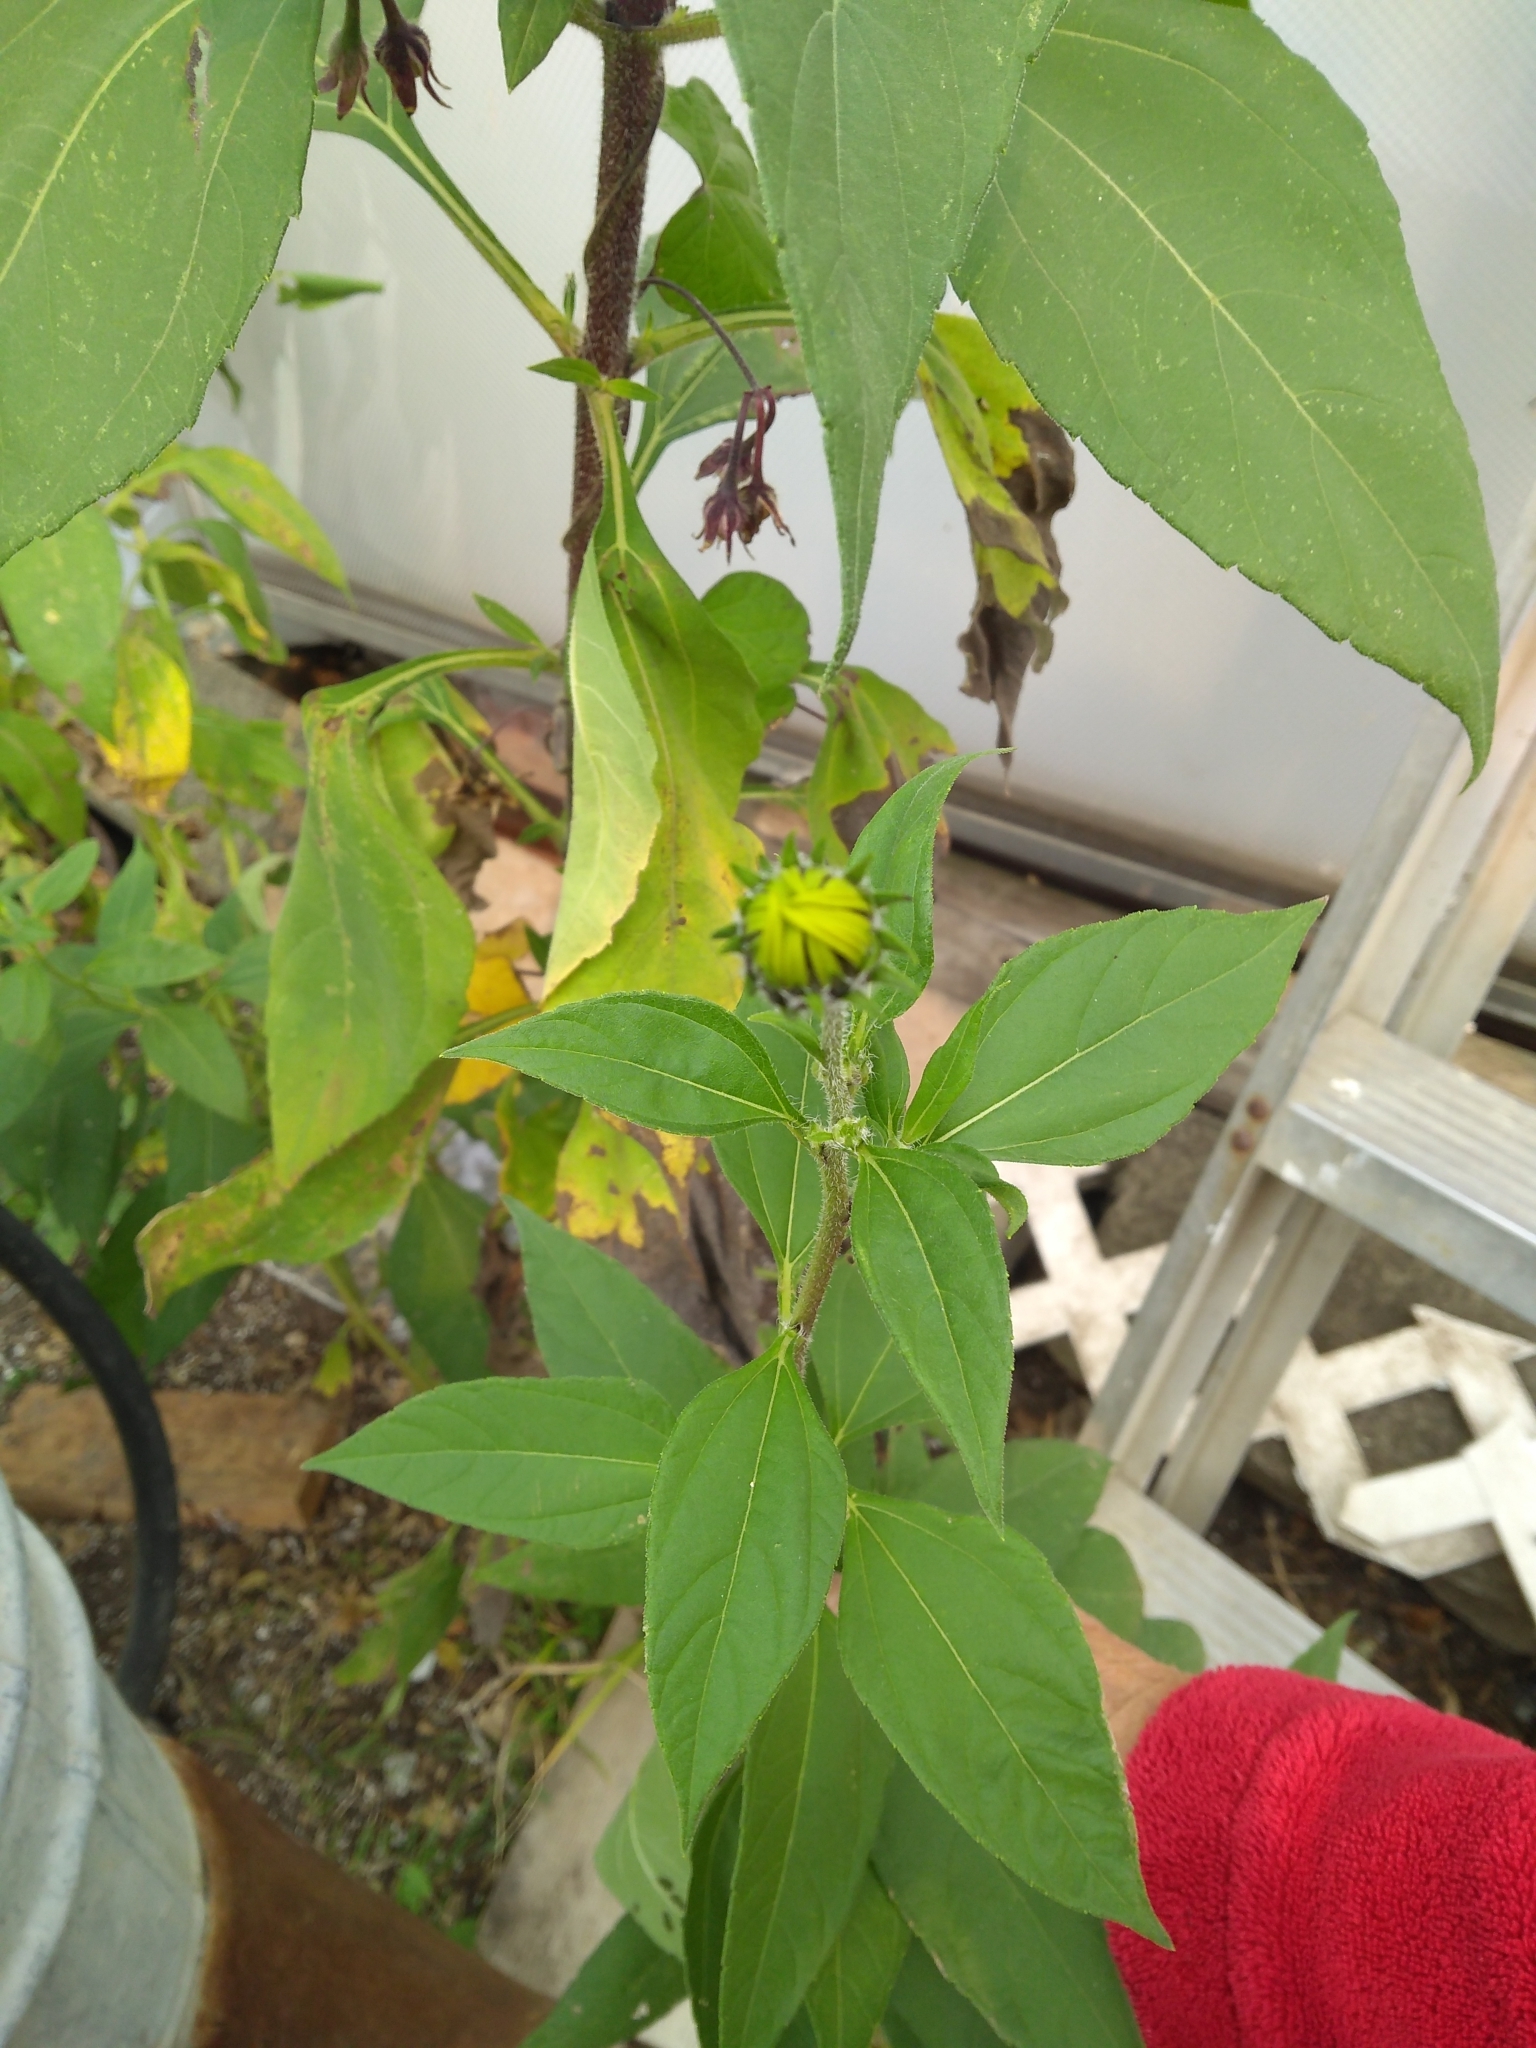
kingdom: Plantae
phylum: Tracheophyta
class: Magnoliopsida
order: Asterales
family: Asteraceae
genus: Helianthus
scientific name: Helianthus tuberosus
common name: Jerusalem artichoke
